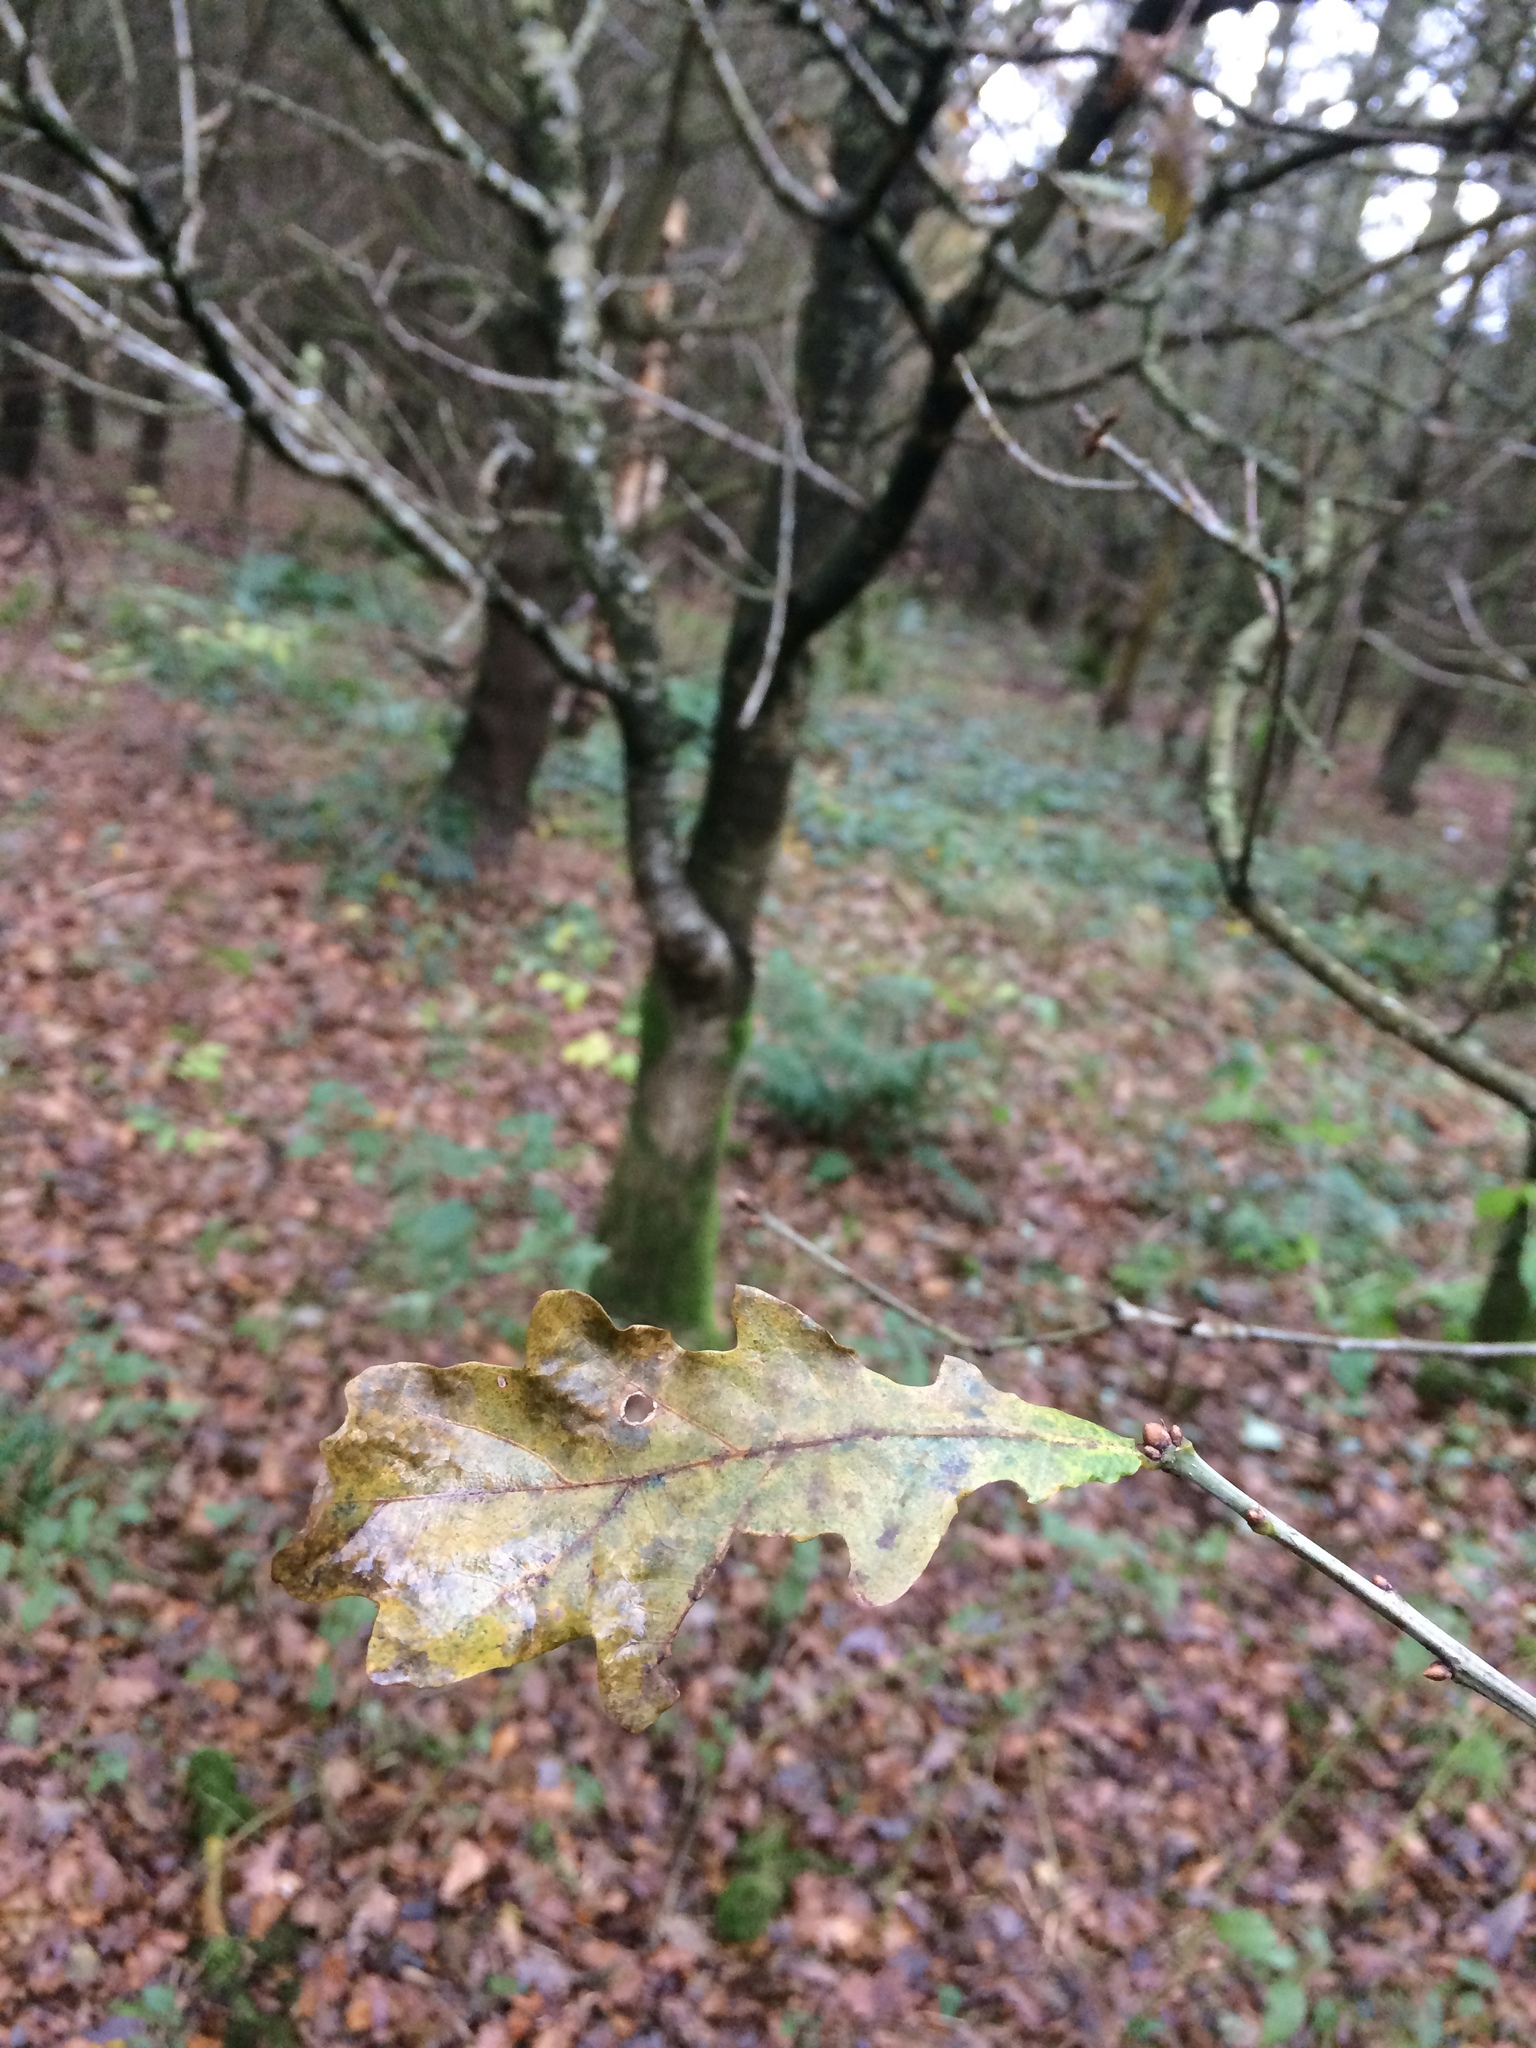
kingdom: Plantae
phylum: Tracheophyta
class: Magnoliopsida
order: Fagales
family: Fagaceae
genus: Quercus
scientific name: Quercus robur
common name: Pedunculate oak
